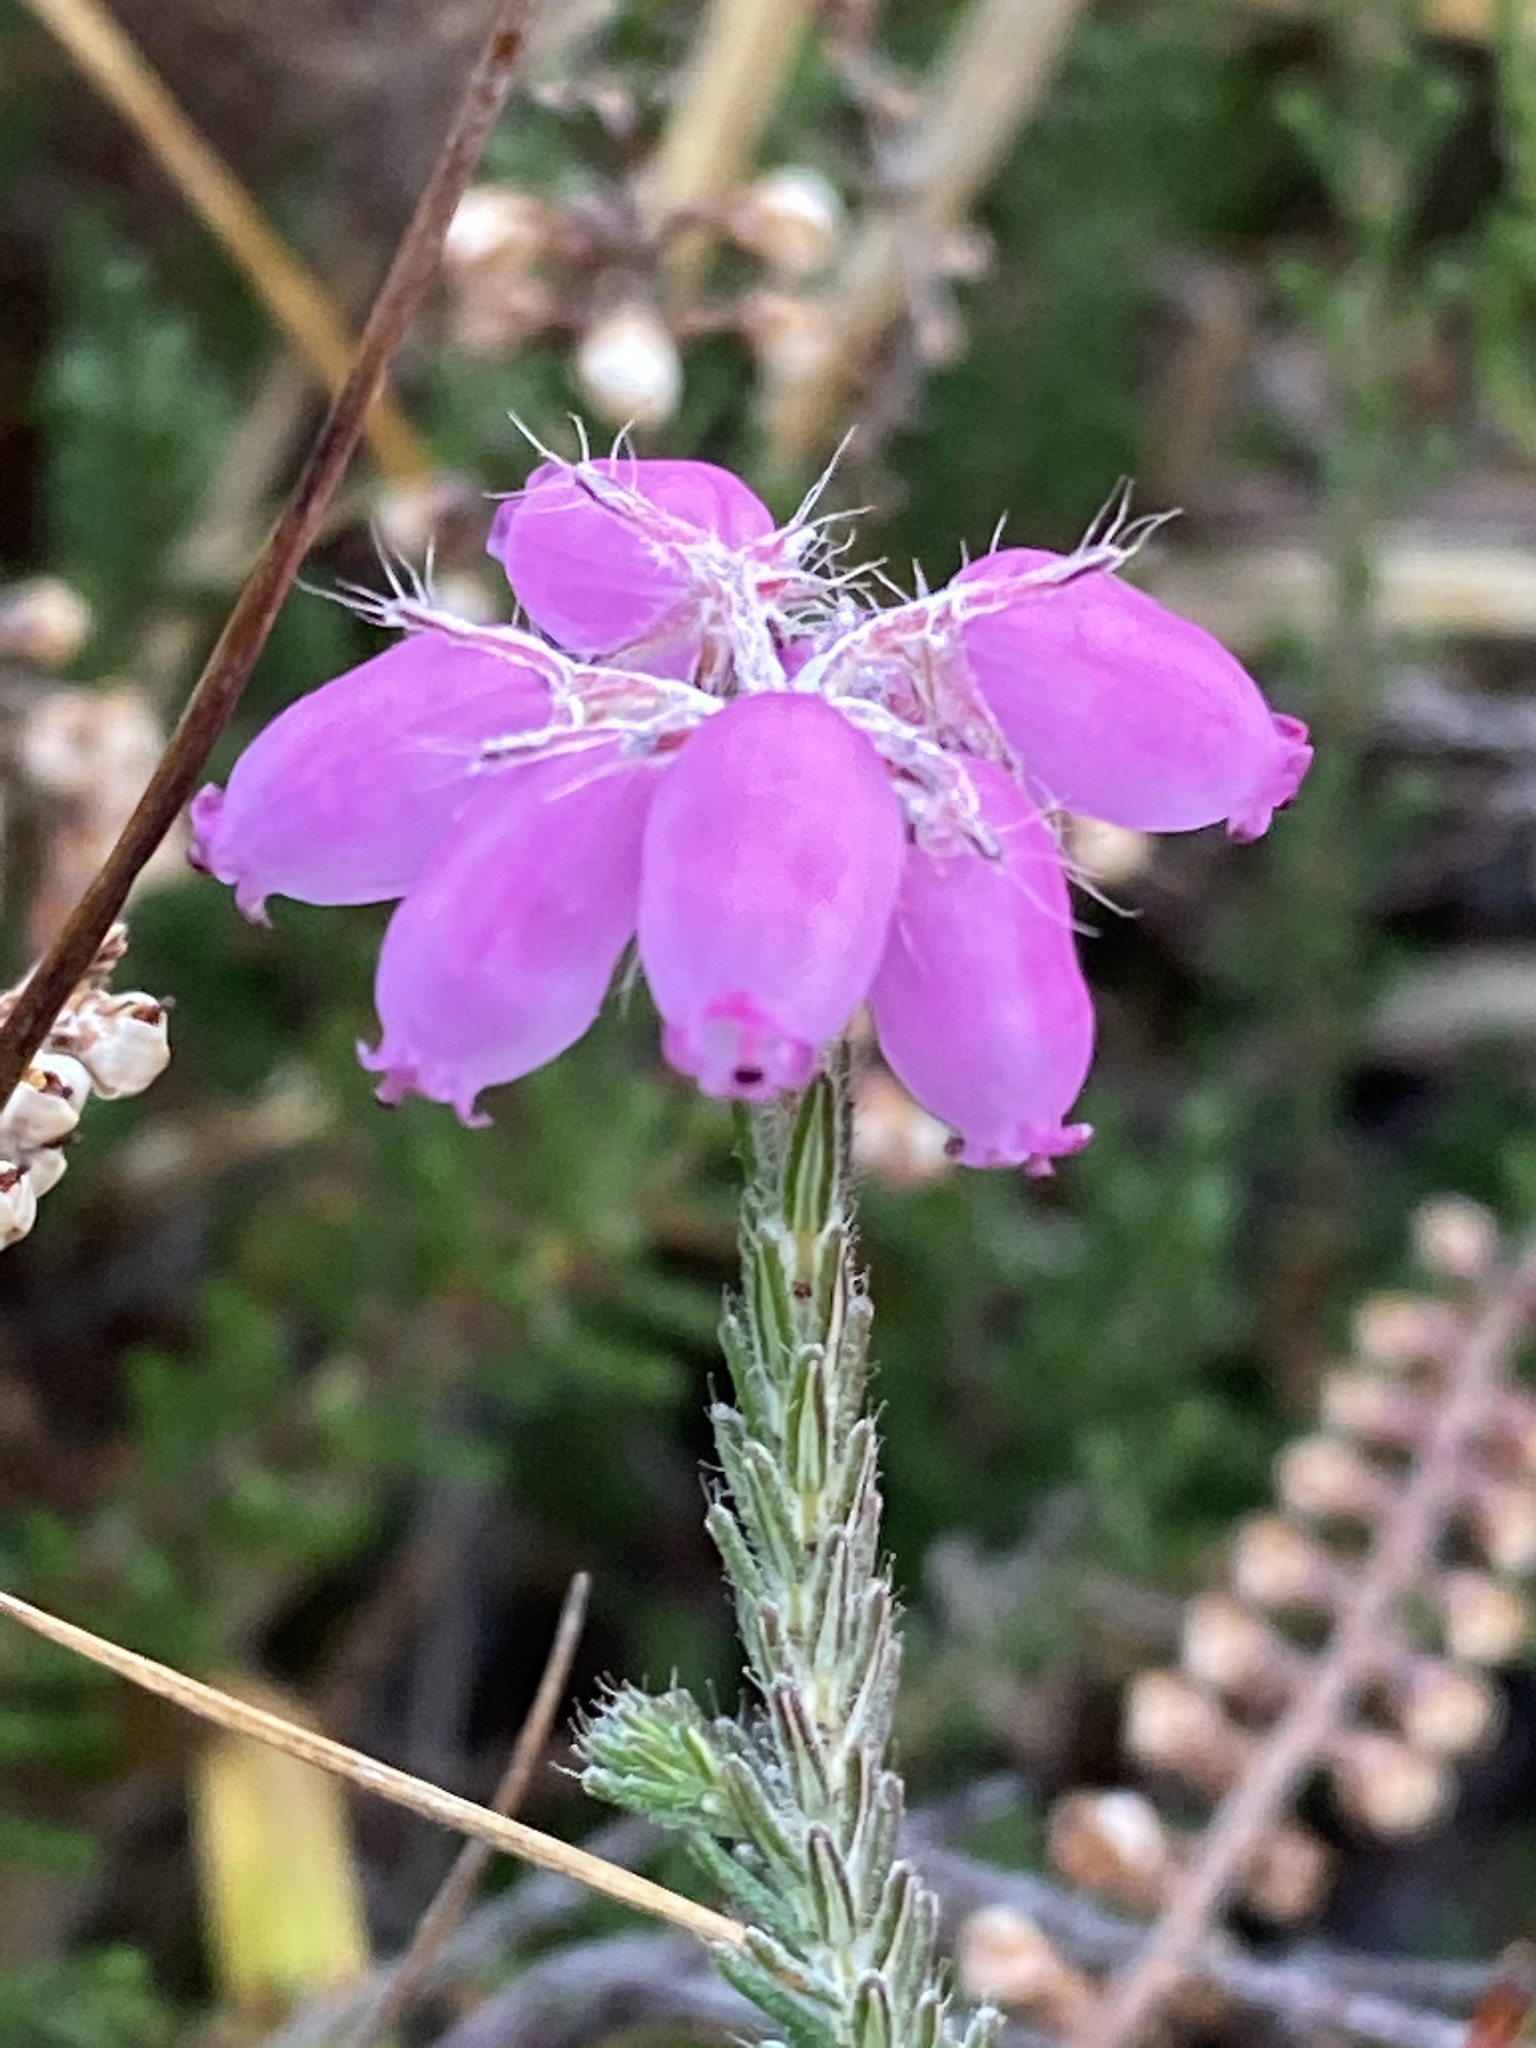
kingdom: Plantae
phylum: Tracheophyta
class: Magnoliopsida
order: Ericales
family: Ericaceae
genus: Erica
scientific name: Erica tetralix
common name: Cross-leaved heath
